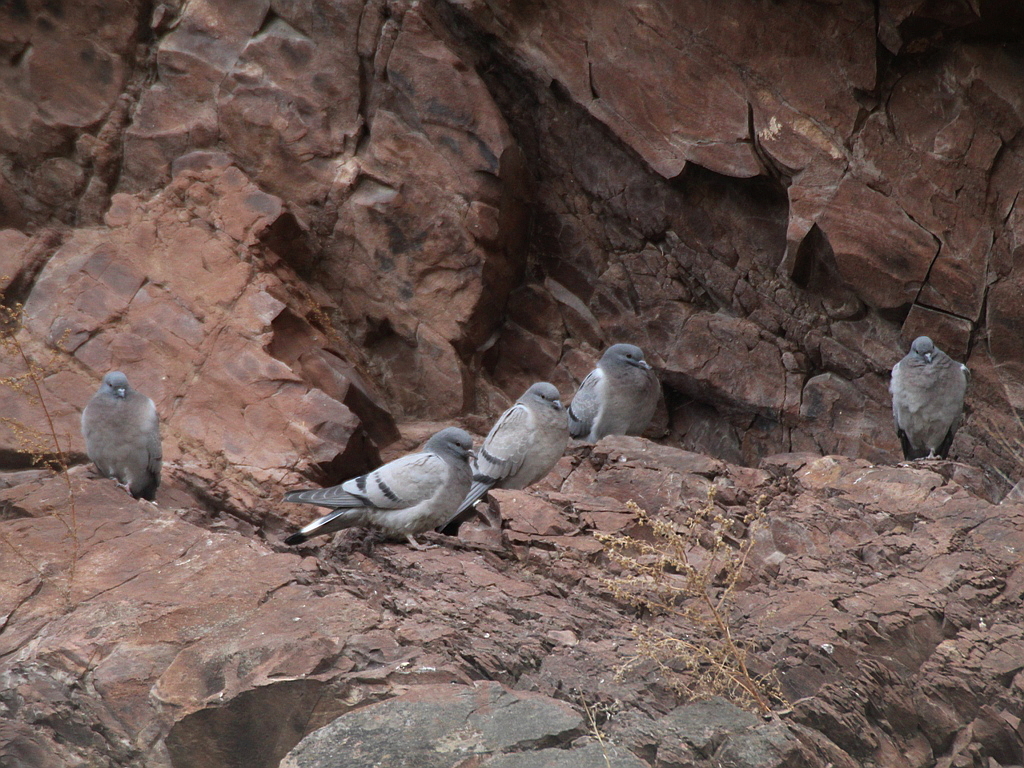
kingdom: Animalia
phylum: Chordata
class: Aves
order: Columbiformes
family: Columbidae
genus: Columba
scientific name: Columba rupestris
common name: Hill pigeon
